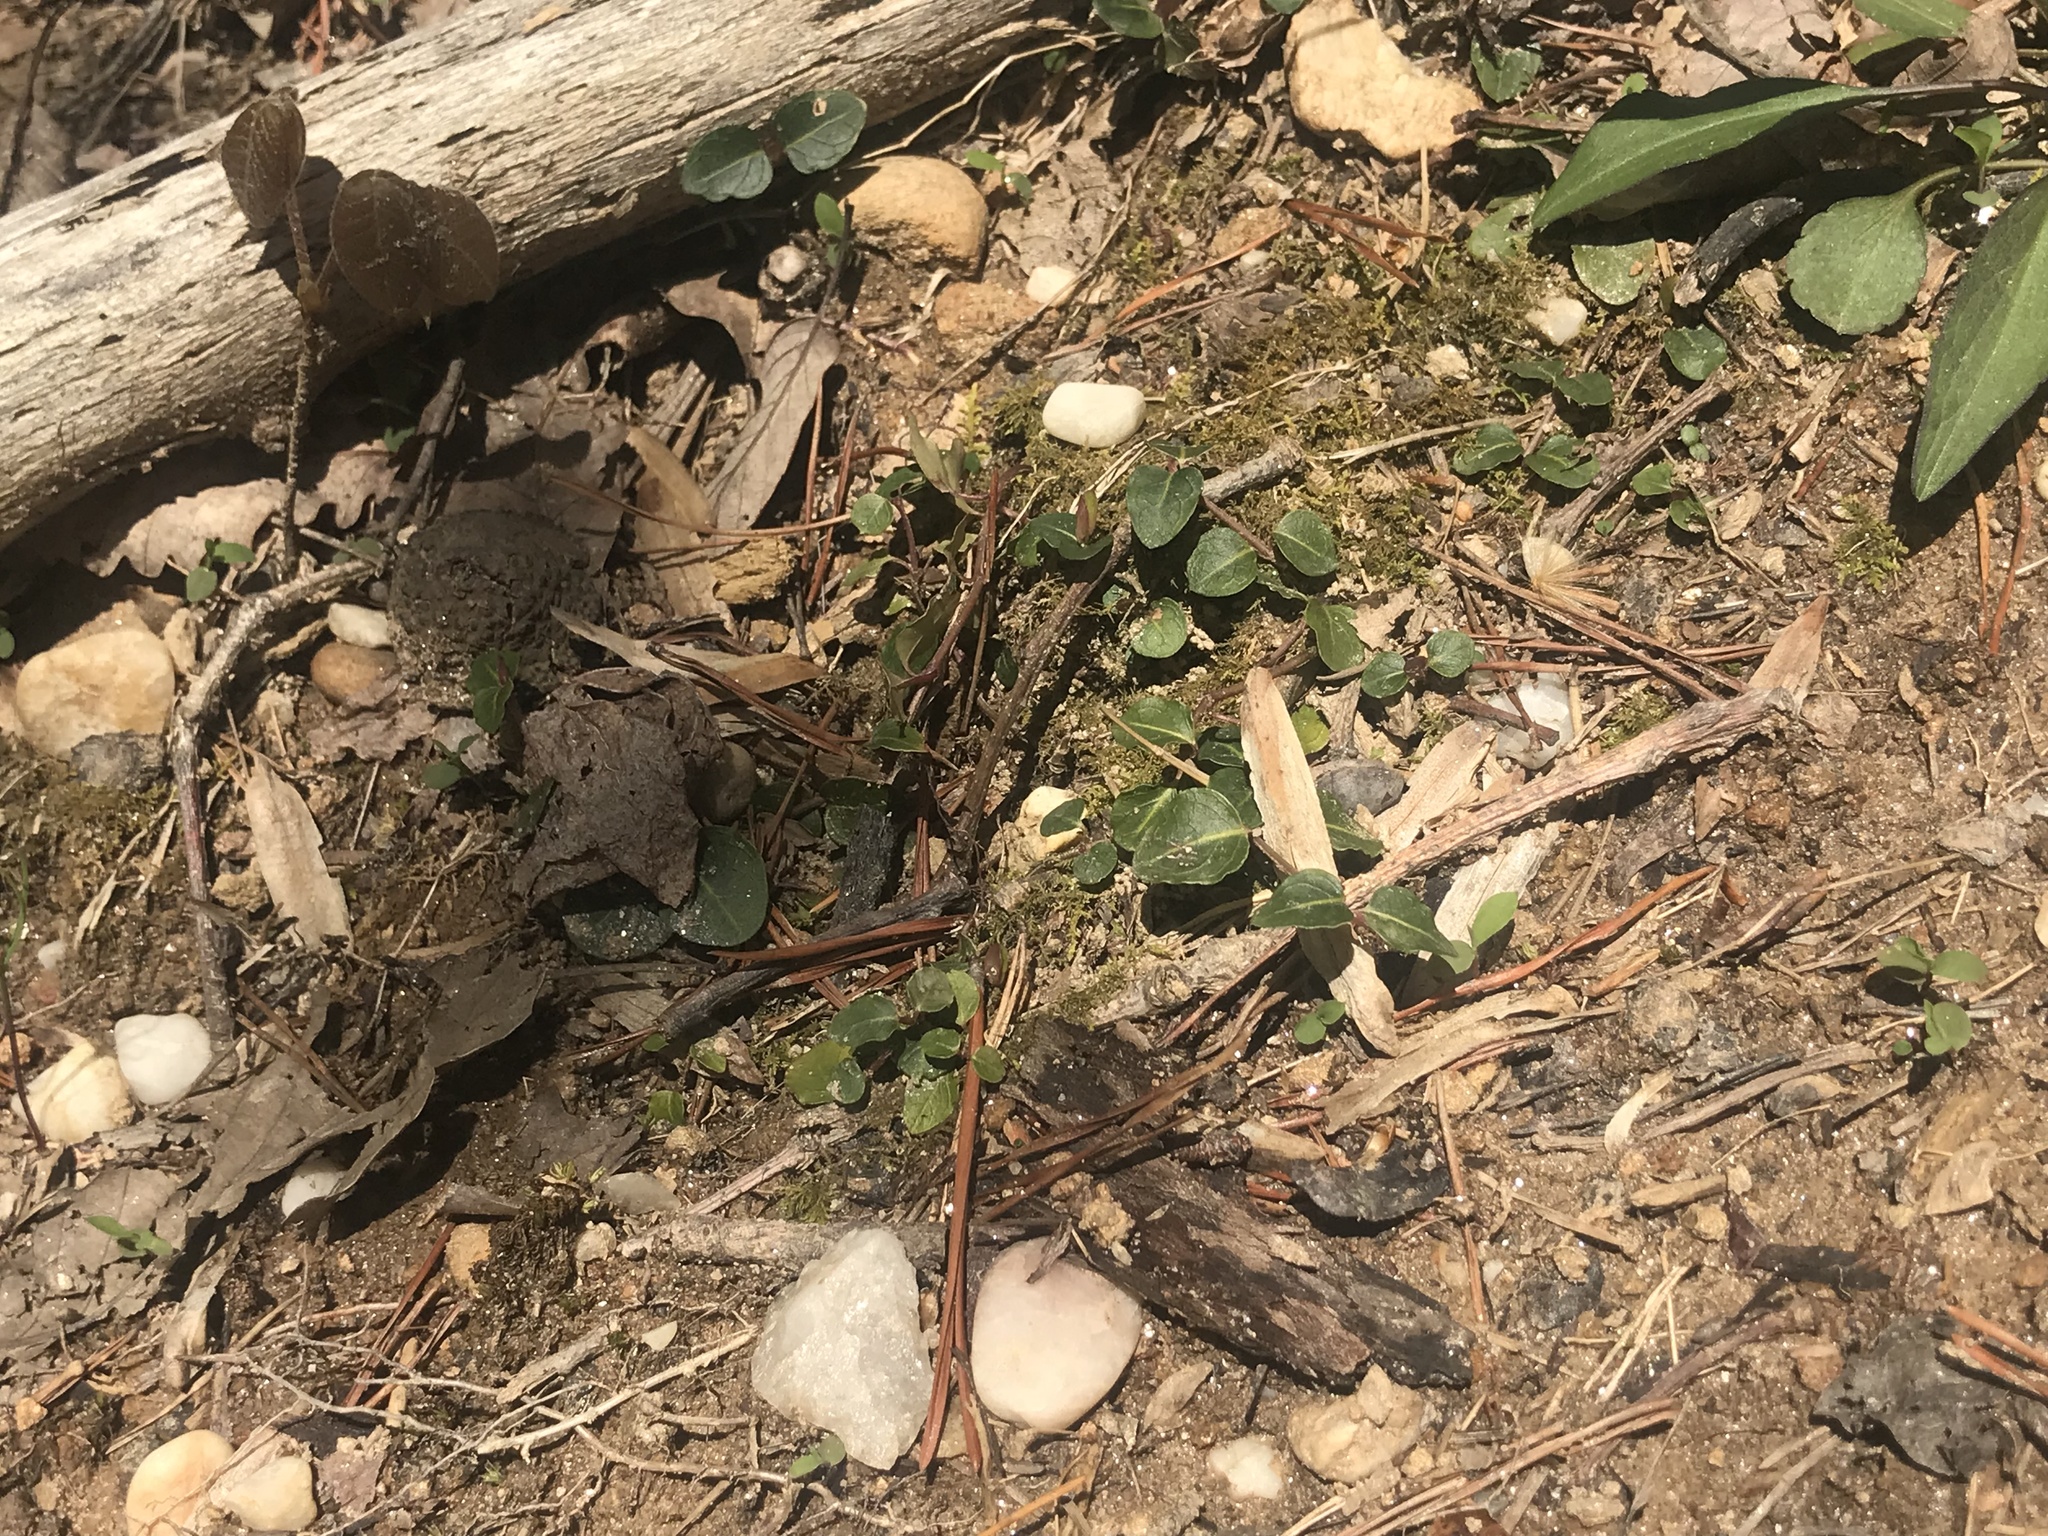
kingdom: Plantae
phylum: Tracheophyta
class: Magnoliopsida
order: Gentianales
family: Rubiaceae
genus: Mitchella
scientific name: Mitchella repens
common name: Partridge-berry
